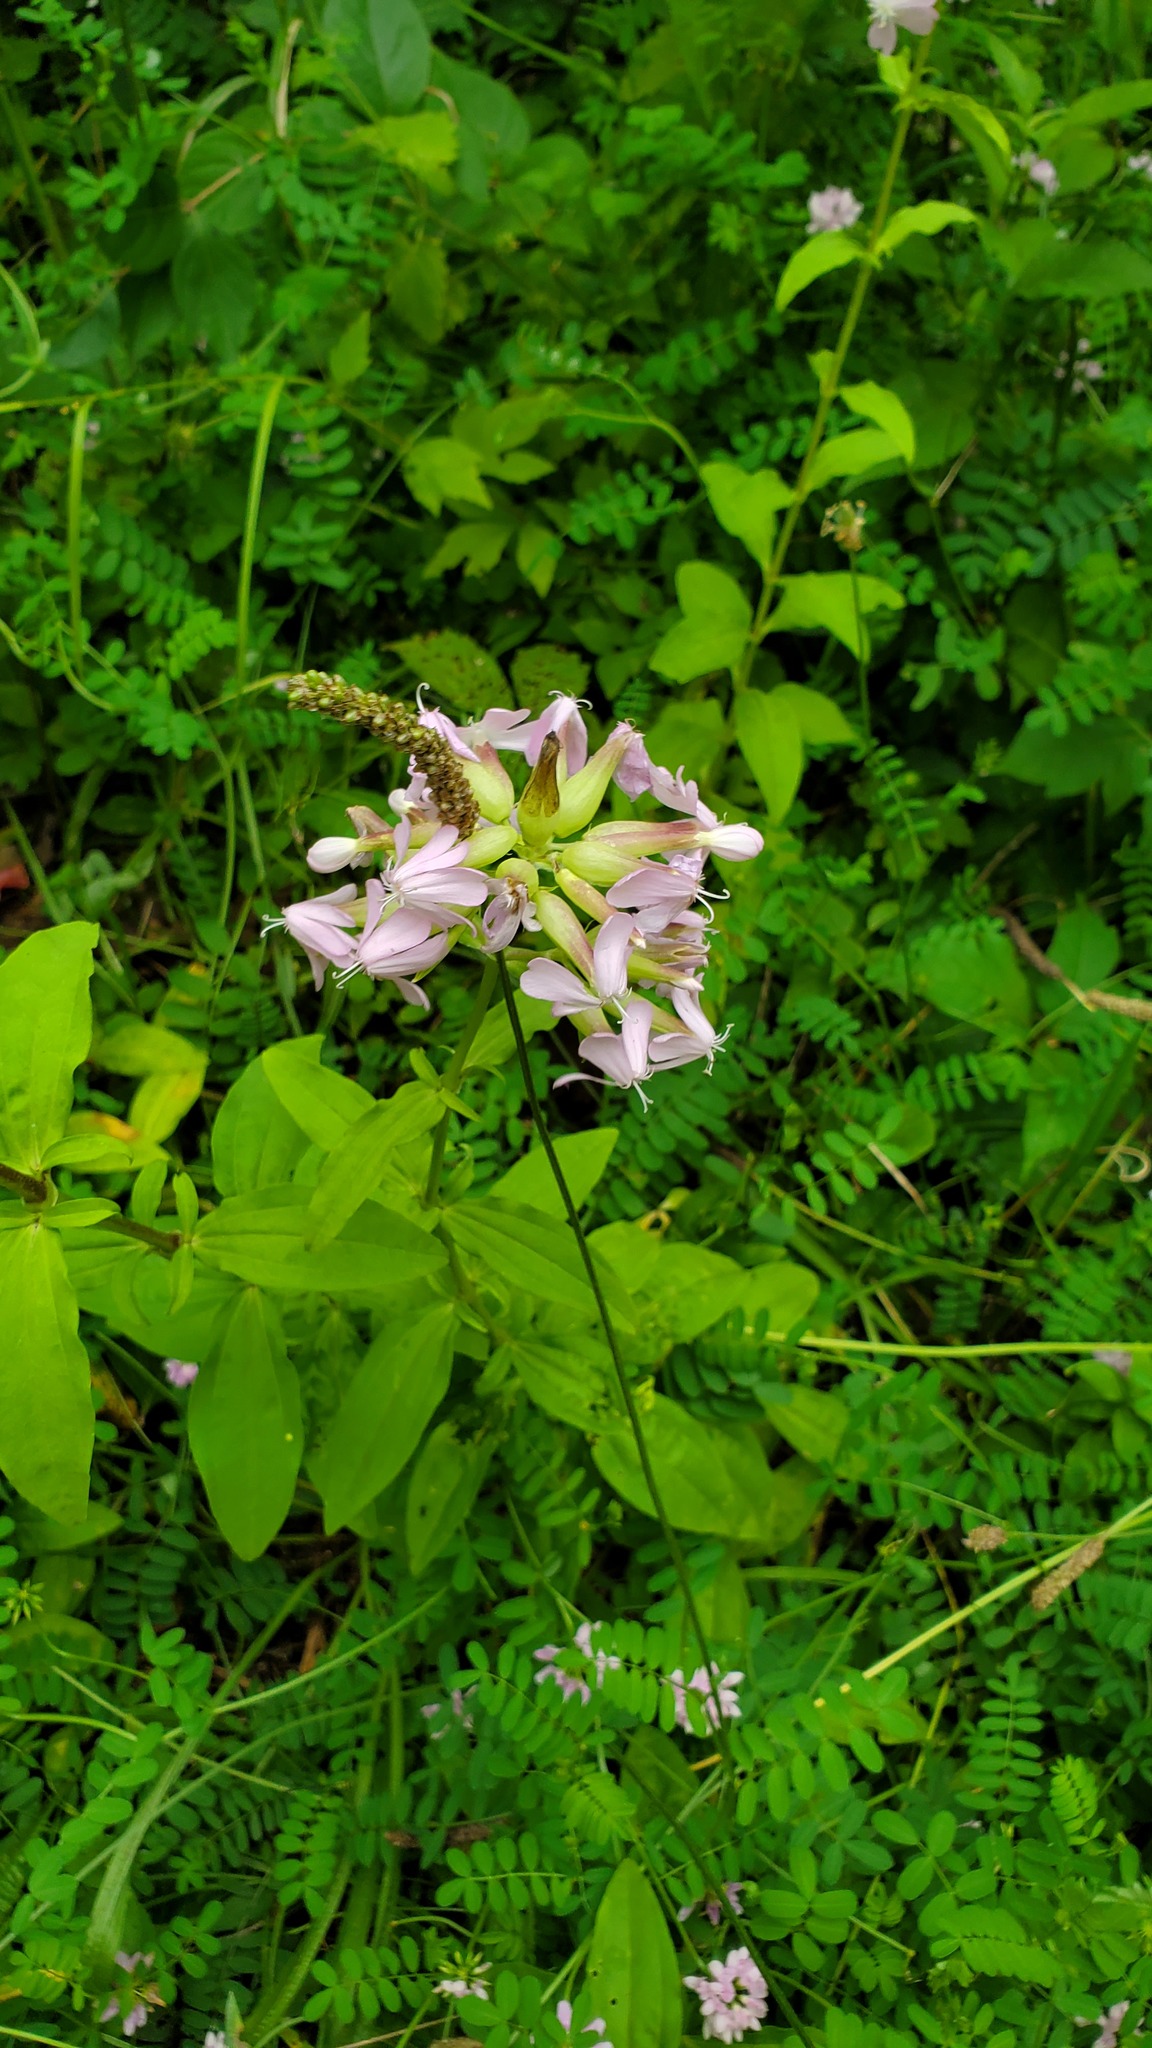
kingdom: Plantae
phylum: Tracheophyta
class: Magnoliopsida
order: Caryophyllales
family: Caryophyllaceae
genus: Saponaria
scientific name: Saponaria officinalis
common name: Soapwort
